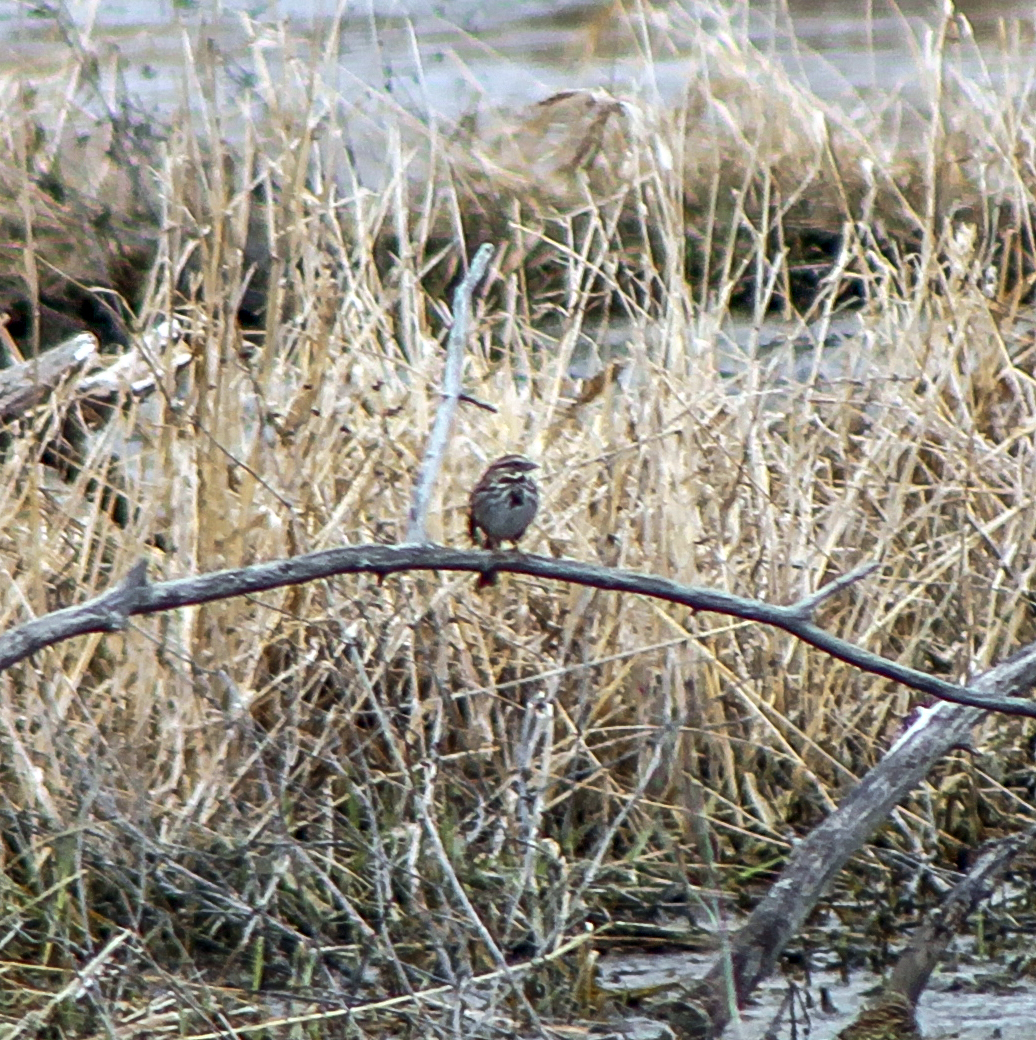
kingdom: Animalia
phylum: Chordata
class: Aves
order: Passeriformes
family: Passerellidae
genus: Melospiza
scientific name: Melospiza melodia
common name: Song sparrow
